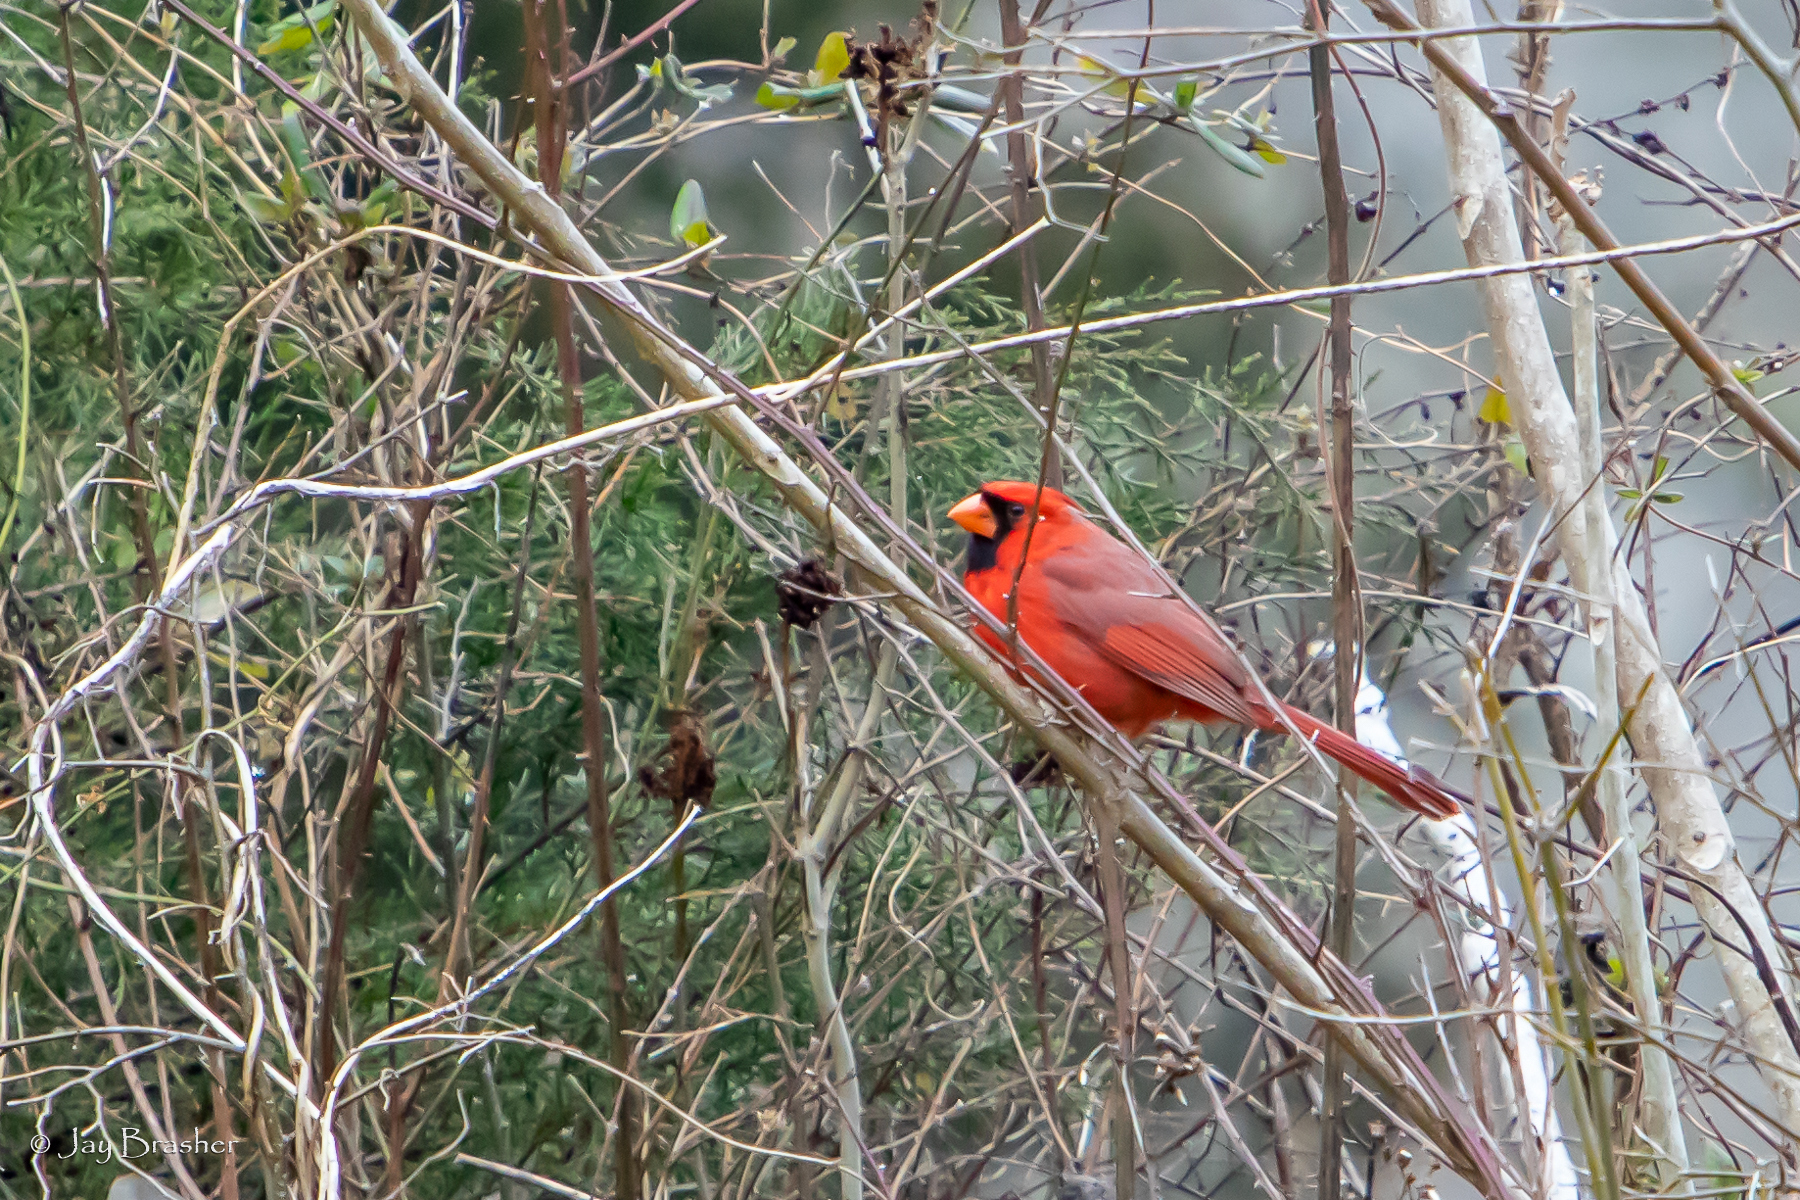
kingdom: Animalia
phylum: Chordata
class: Aves
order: Passeriformes
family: Cardinalidae
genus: Cardinalis
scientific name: Cardinalis cardinalis
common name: Northern cardinal
